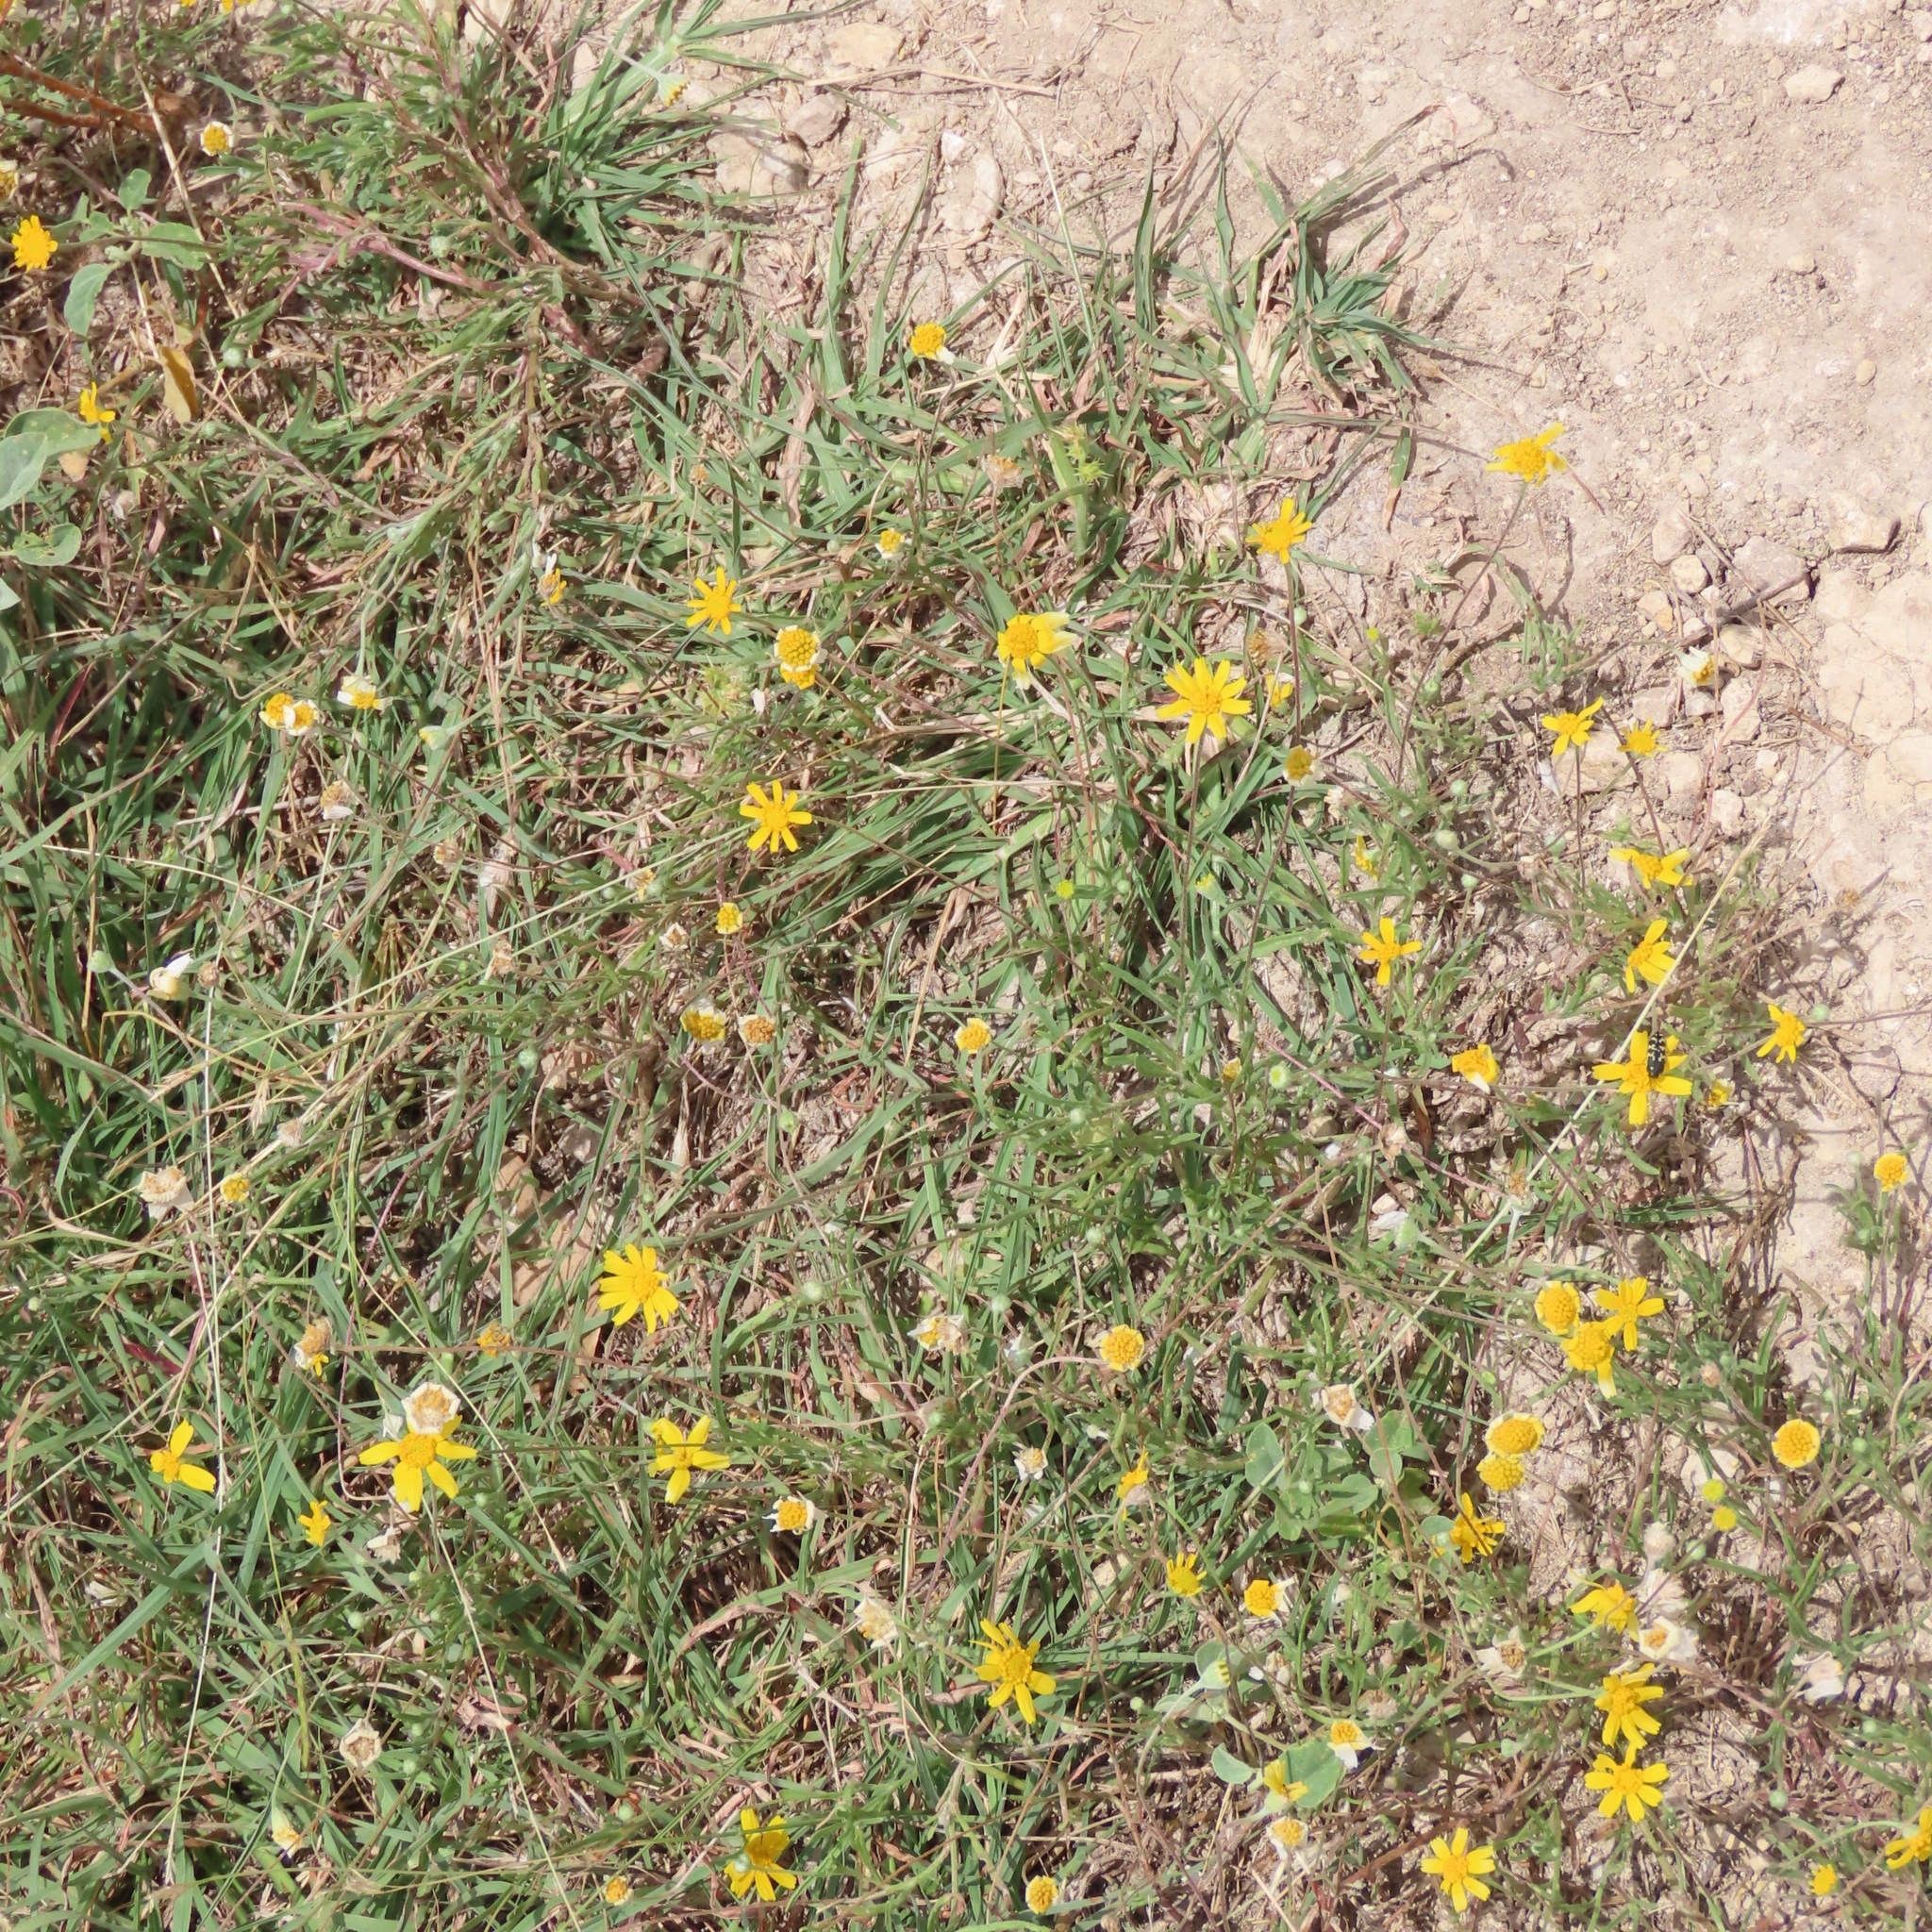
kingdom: Plantae
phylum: Tracheophyta
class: Magnoliopsida
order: Asterales
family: Asteraceae
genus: Tetraneuris
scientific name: Tetraneuris linearifolia
